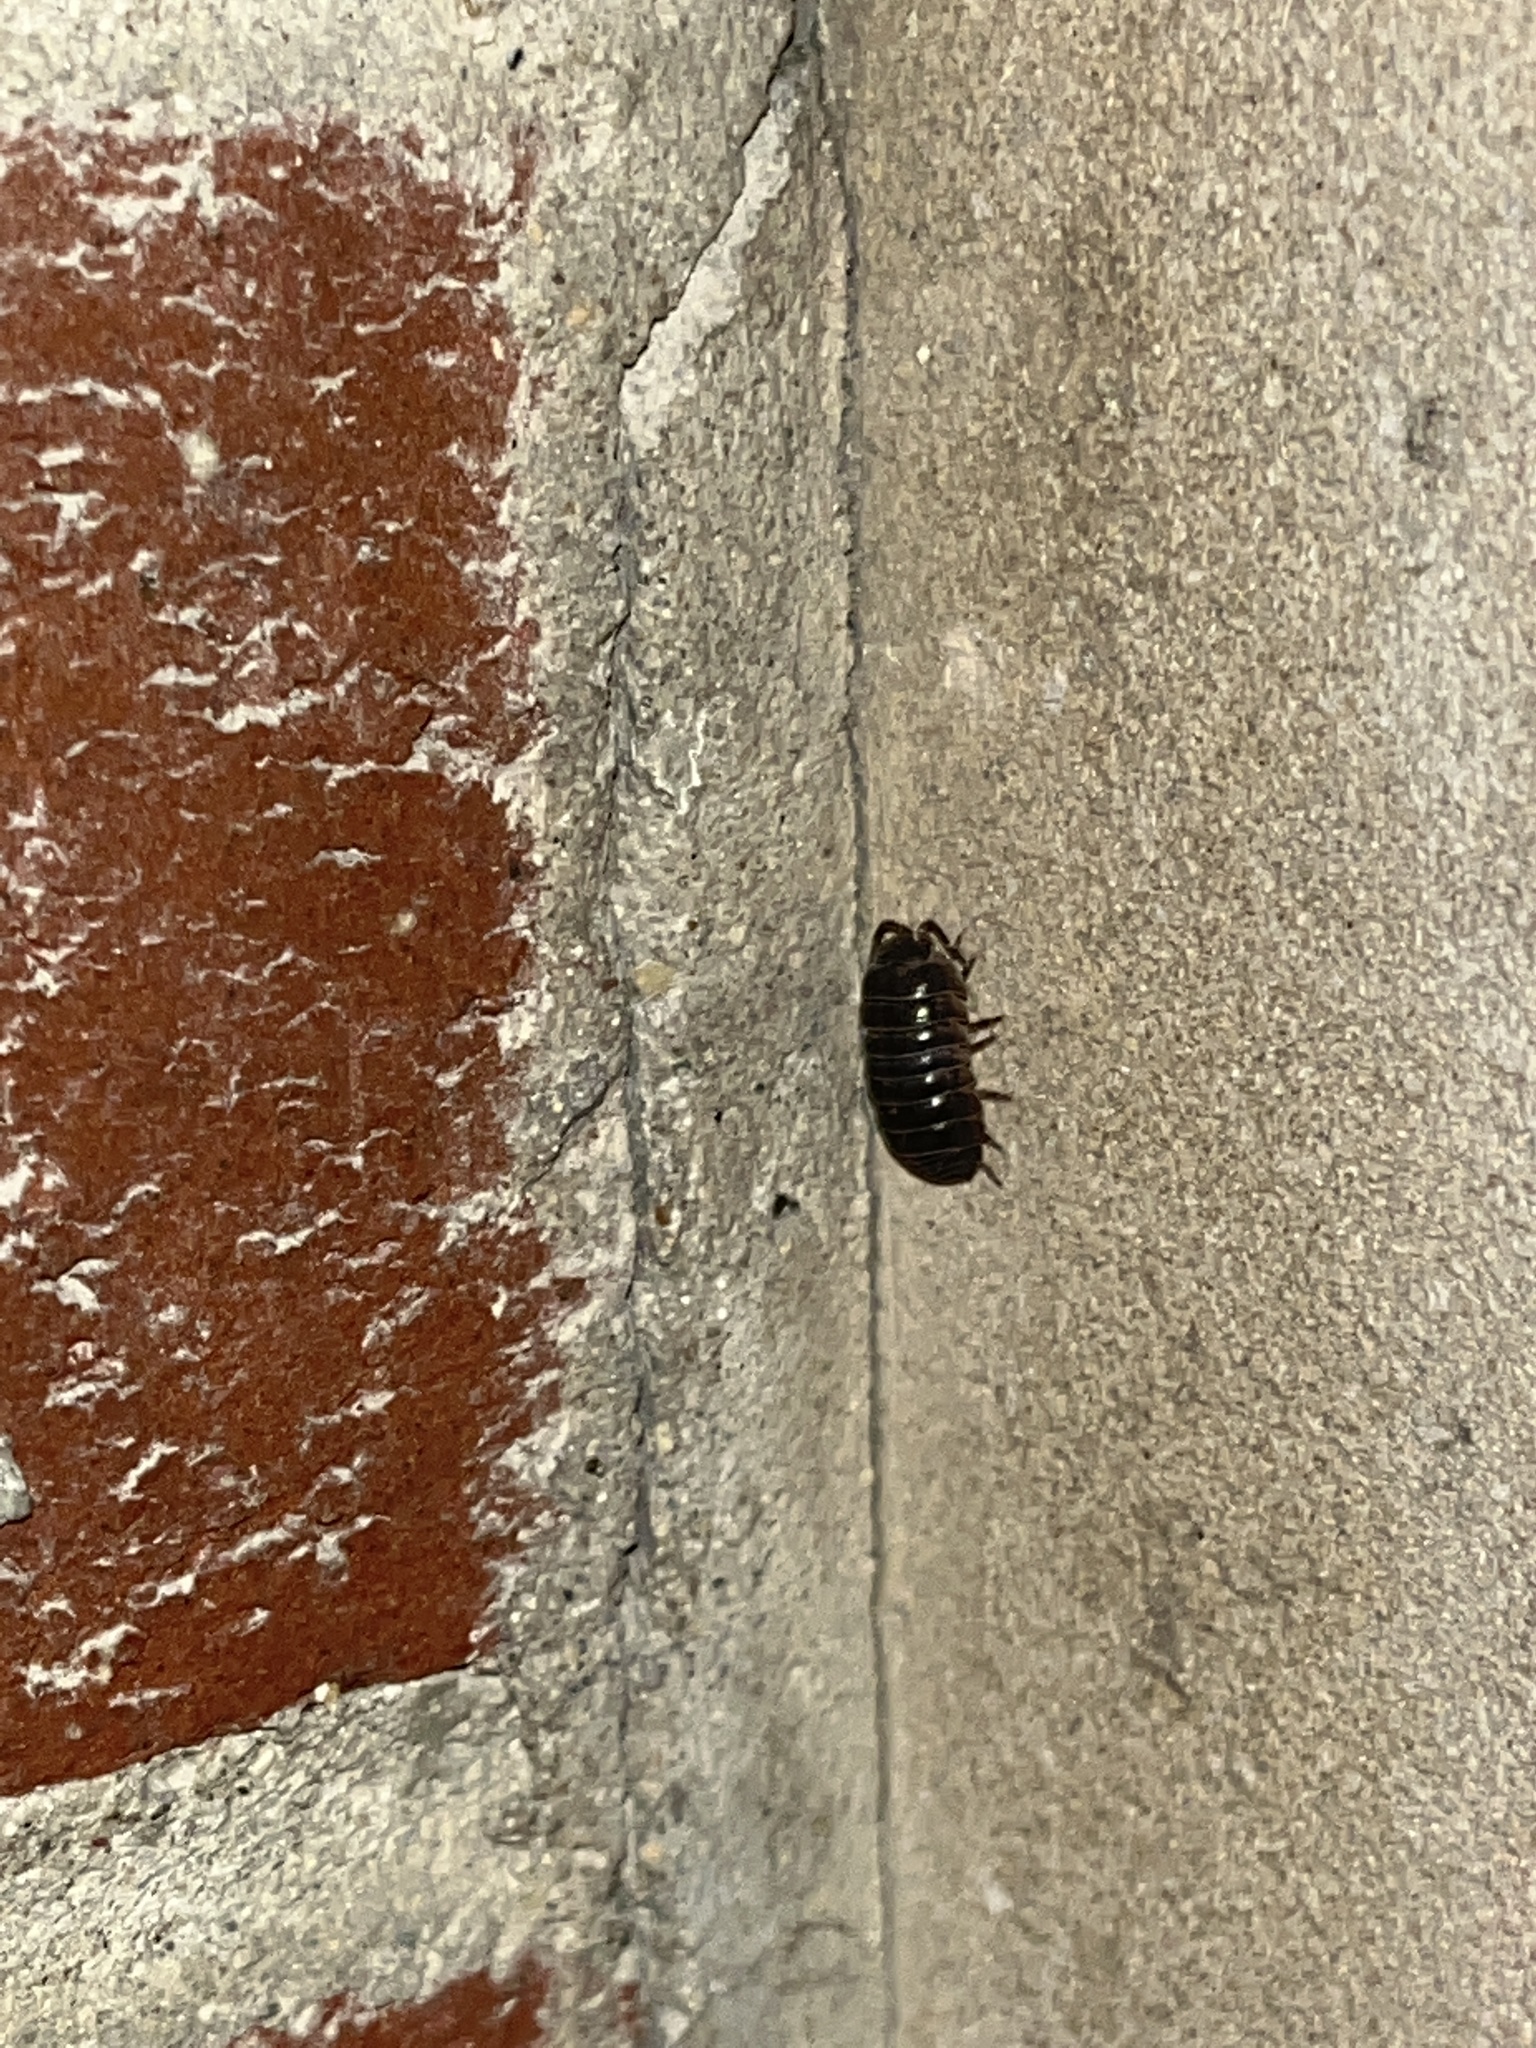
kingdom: Animalia
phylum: Arthropoda
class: Malacostraca
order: Isopoda
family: Armadillidiidae
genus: Armadillidium
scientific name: Armadillidium vulgare
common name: Common pill woodlouse
